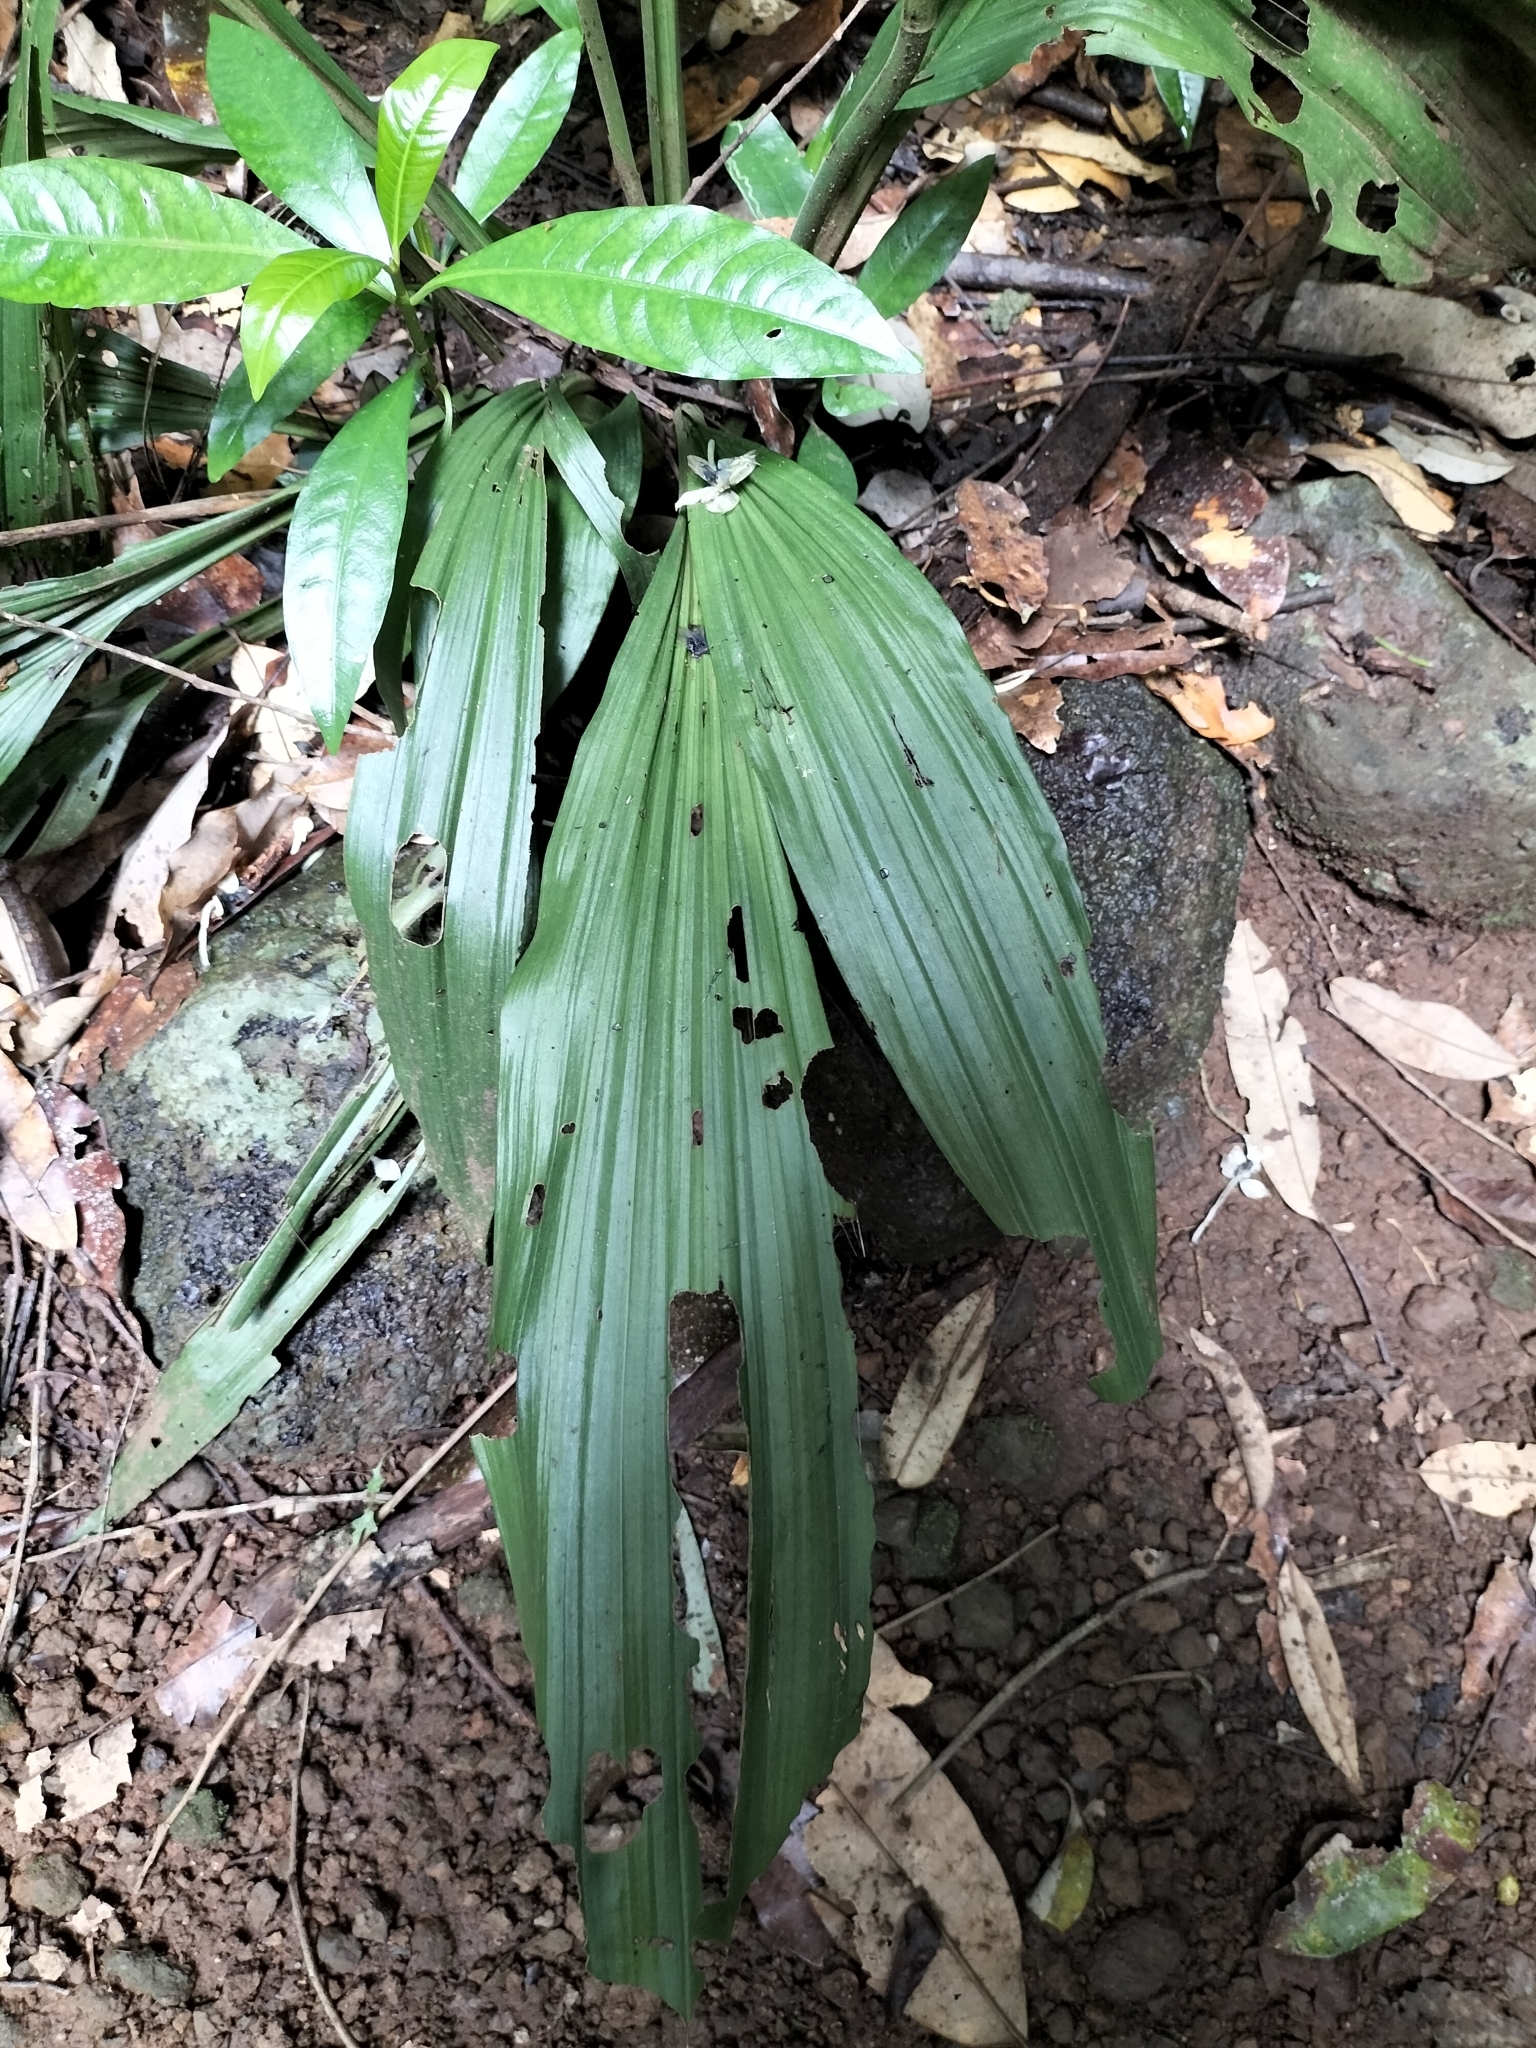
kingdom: Plantae
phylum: Tracheophyta
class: Liliopsida
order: Asparagales
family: Orchidaceae
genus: Calanthe
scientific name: Calanthe triplicata
